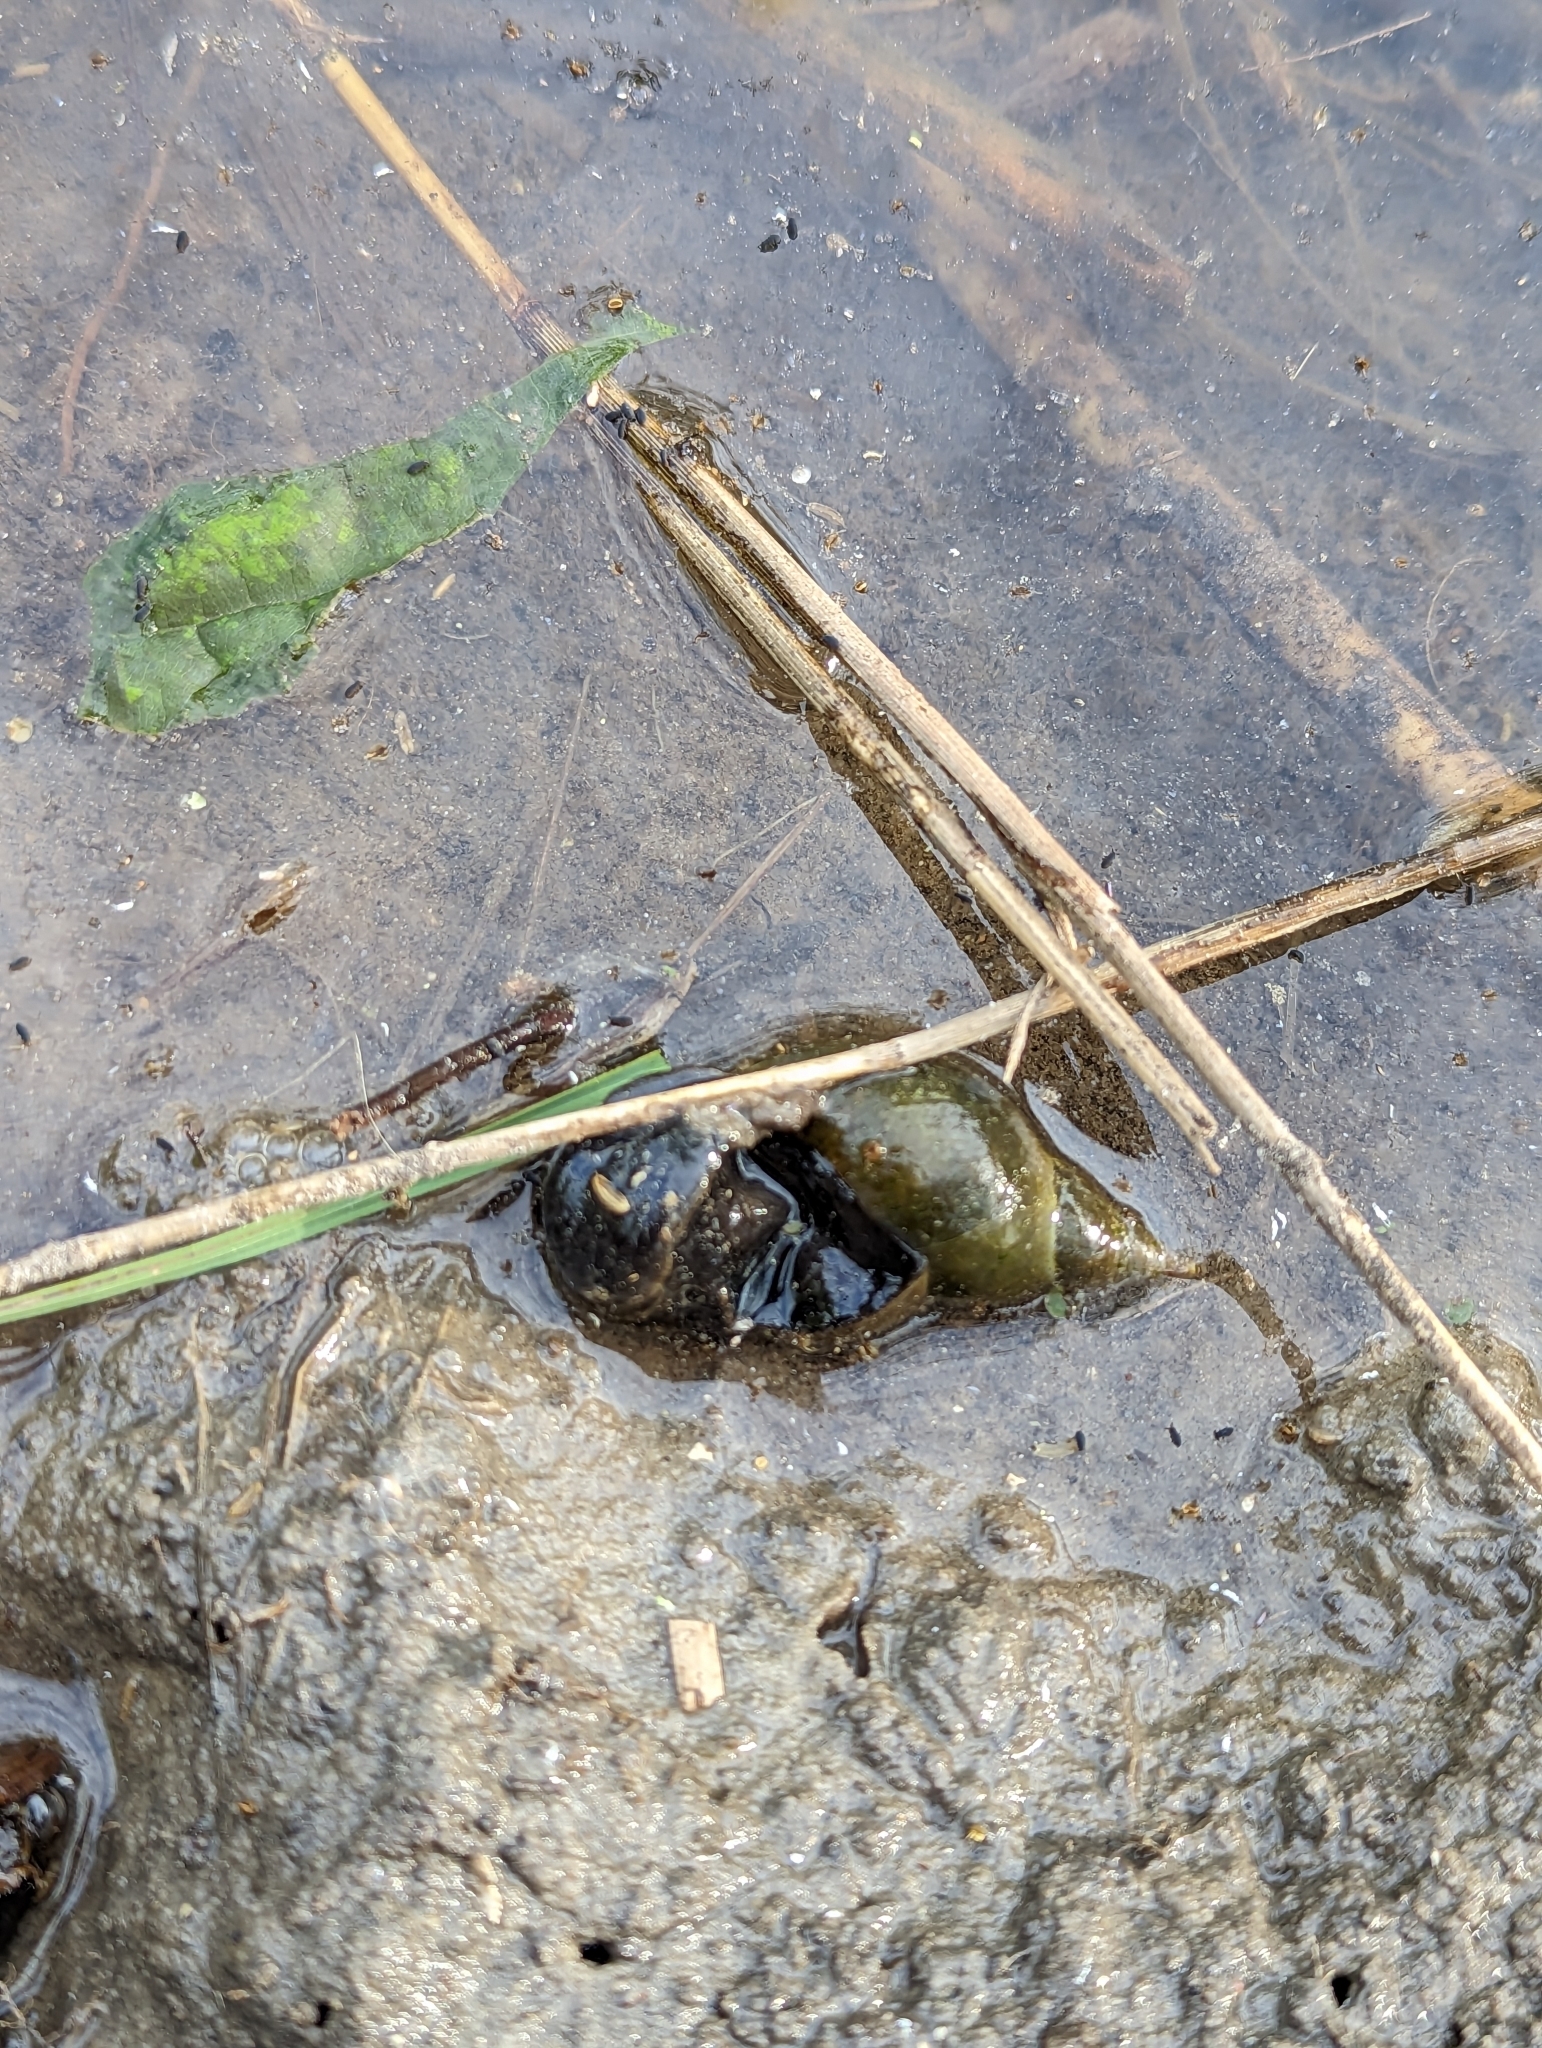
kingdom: Animalia
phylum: Mollusca
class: Gastropoda
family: Lymnaeidae
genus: Lymnaea
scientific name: Lymnaea stagnalis
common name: Great pond snail
